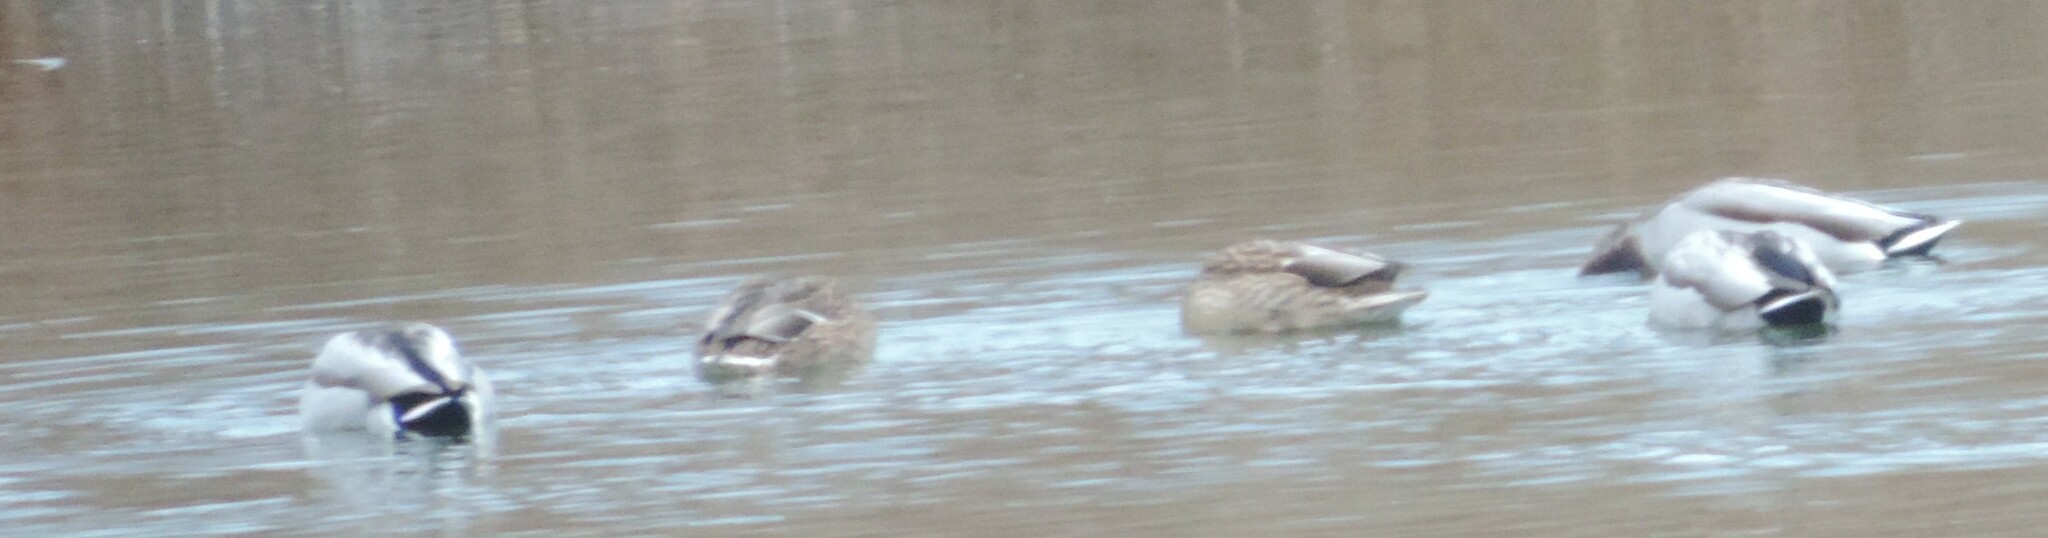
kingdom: Animalia
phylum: Chordata
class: Aves
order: Anseriformes
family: Anatidae
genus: Anas
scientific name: Anas platyrhynchos
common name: Mallard
